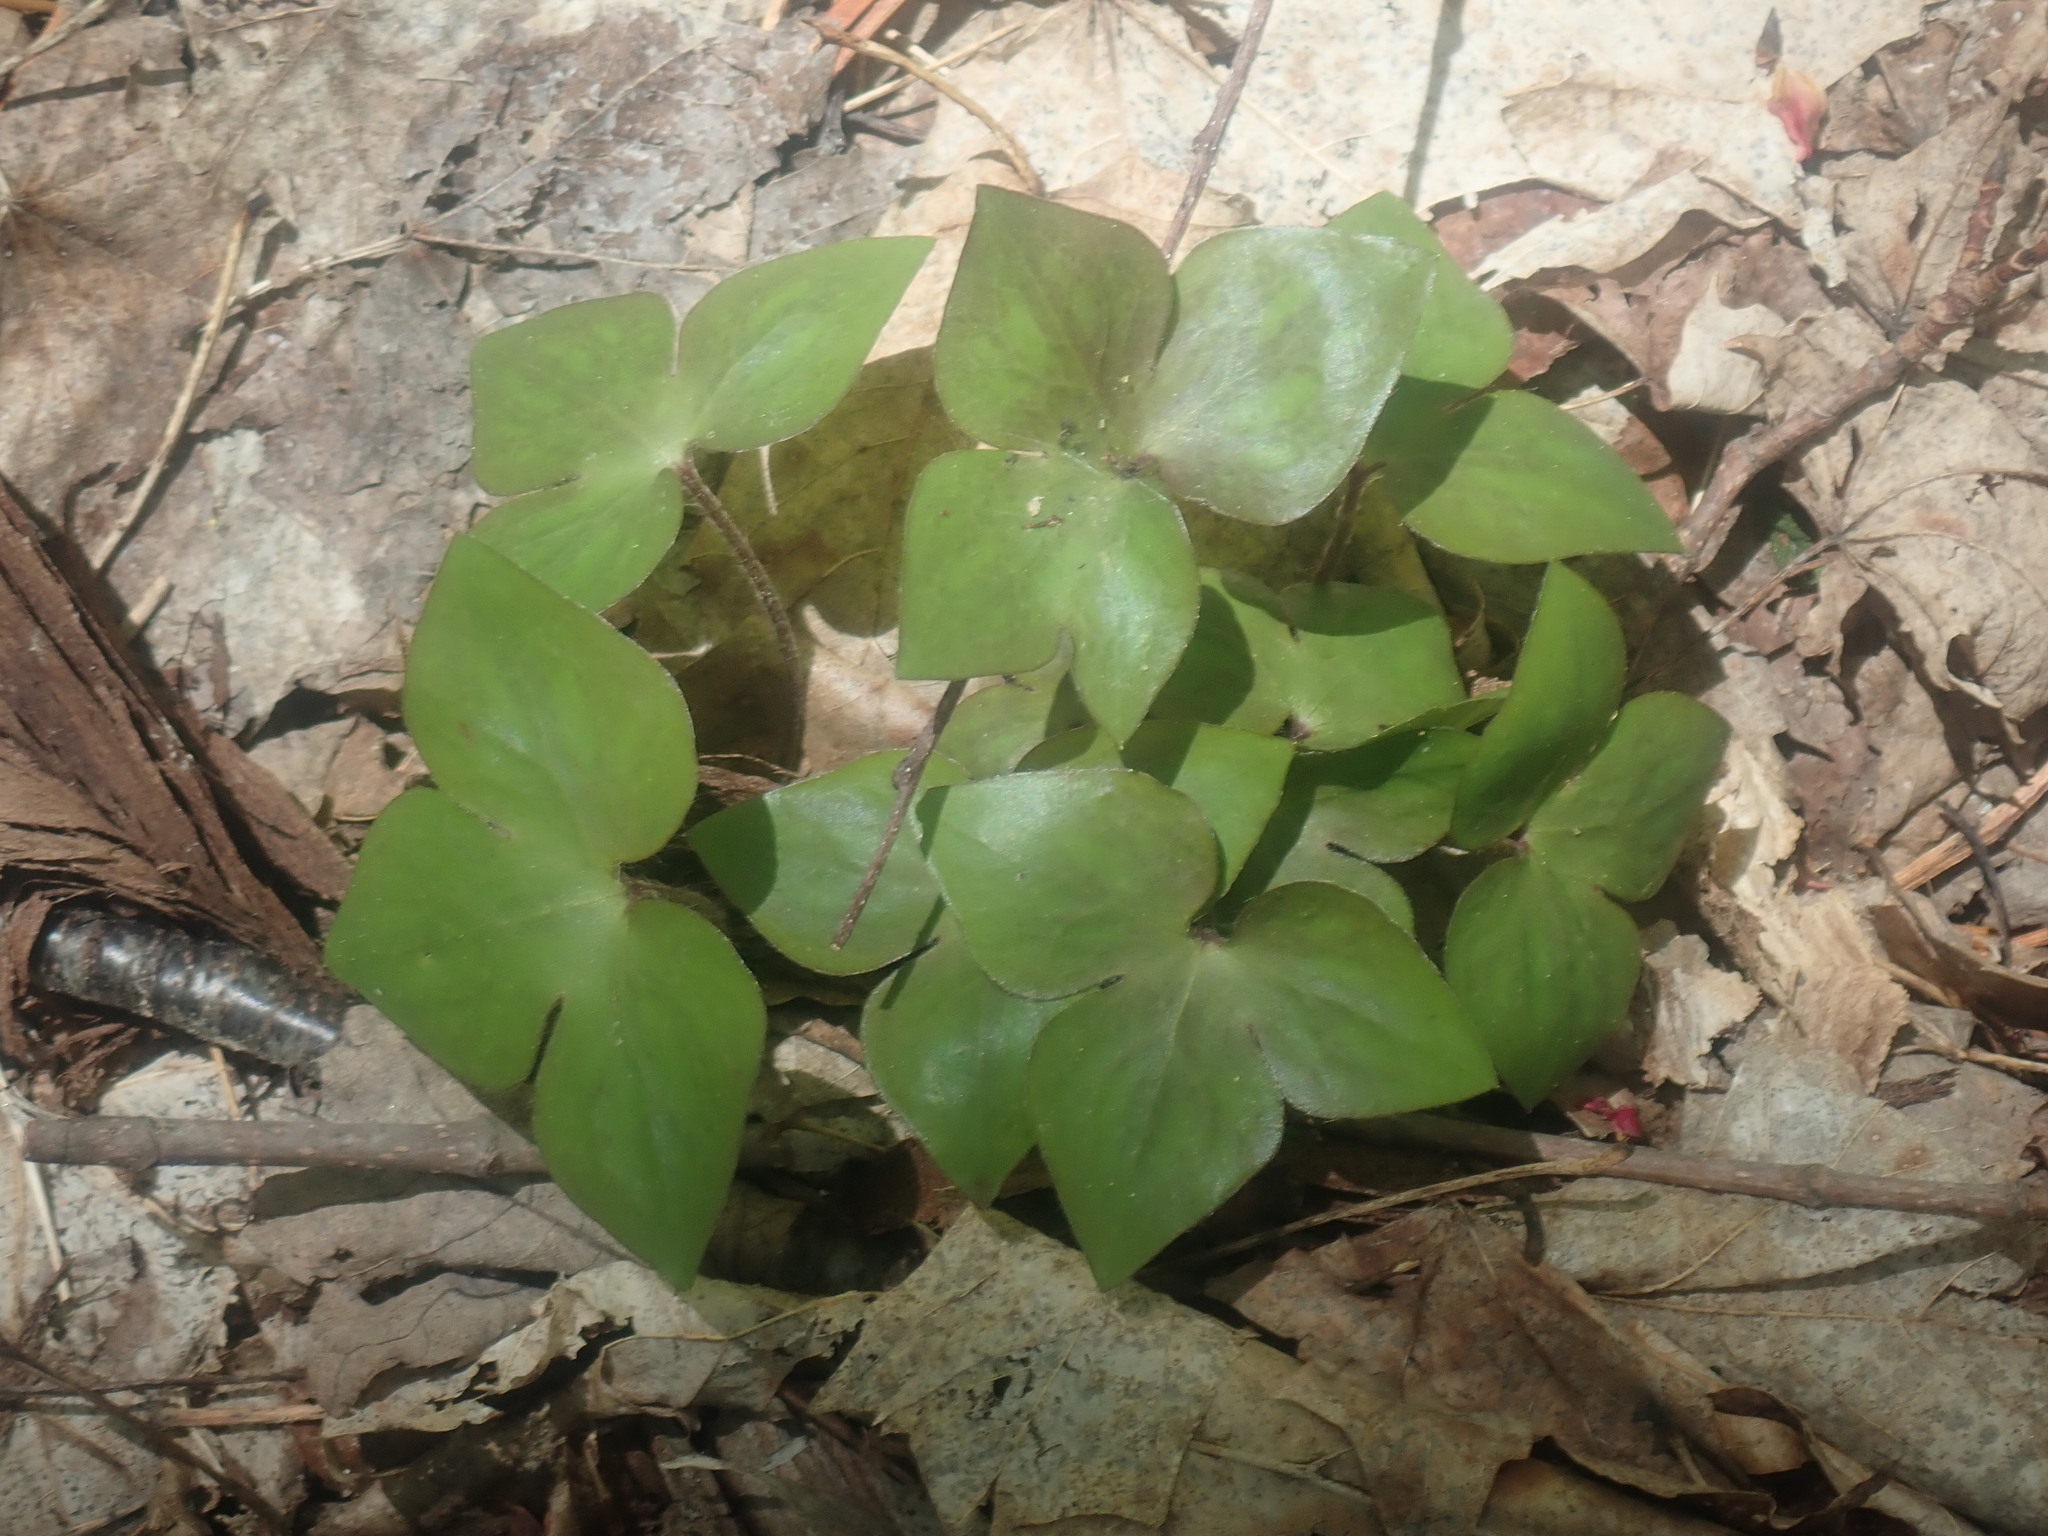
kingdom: Plantae
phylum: Tracheophyta
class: Magnoliopsida
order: Ranunculales
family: Ranunculaceae
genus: Hepatica
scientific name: Hepatica acutiloba
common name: Sharp-lobed hepatica
